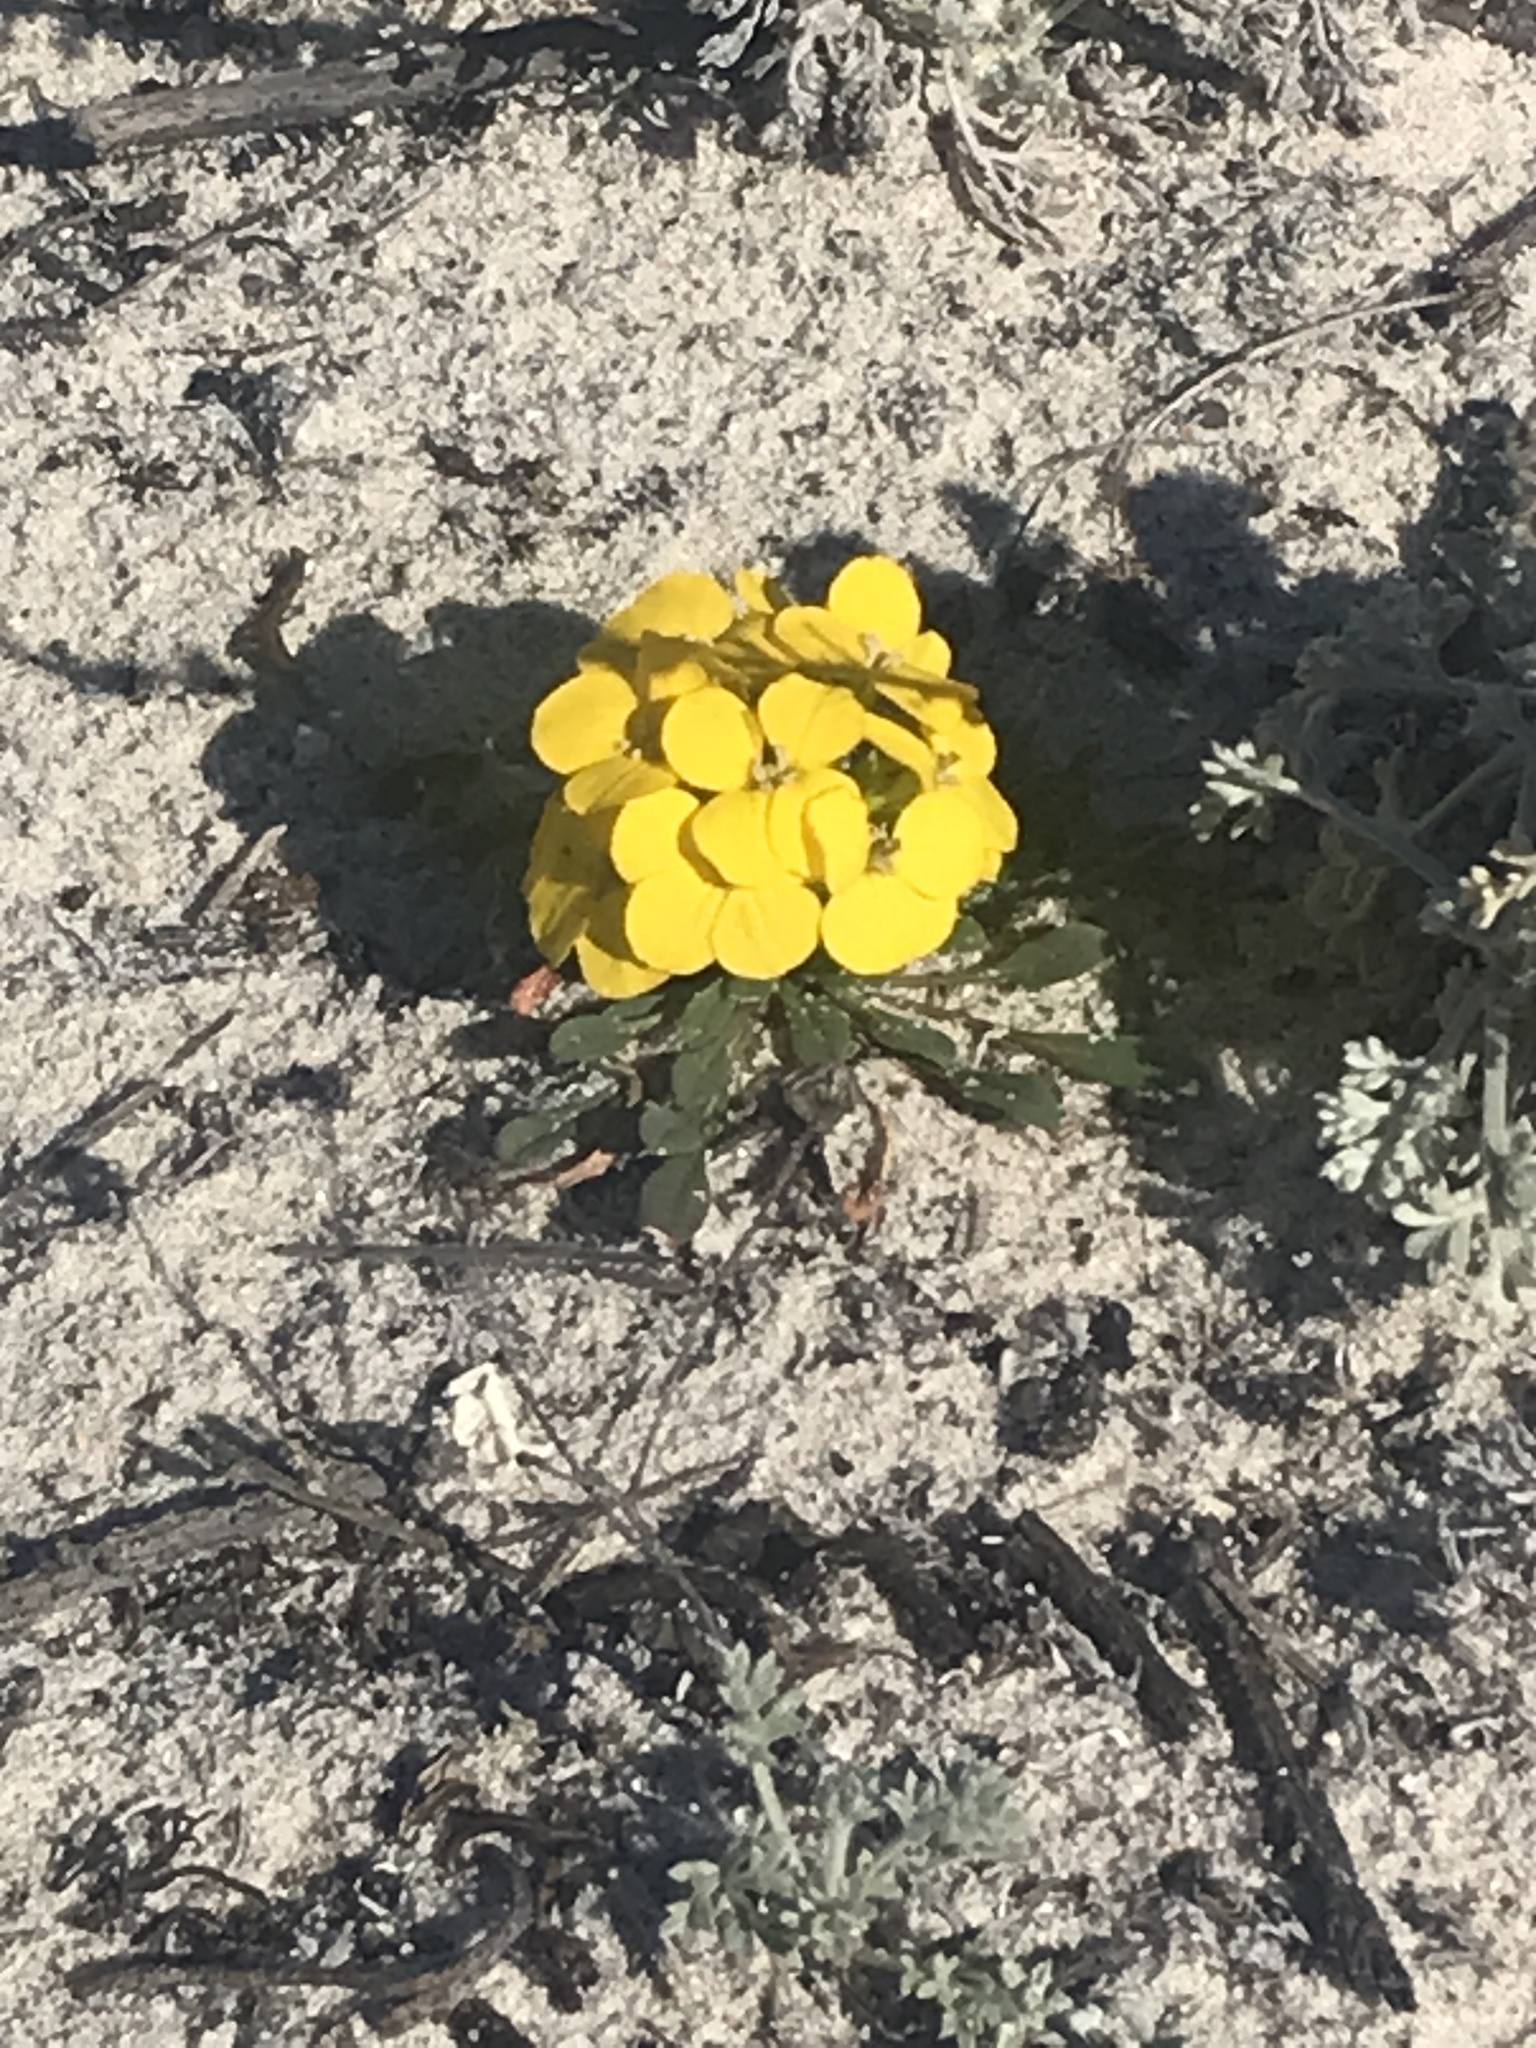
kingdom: Plantae
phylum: Tracheophyta
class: Magnoliopsida
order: Brassicales
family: Brassicaceae
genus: Erysimum
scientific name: Erysimum menziesii
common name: Menzies's wallflower
